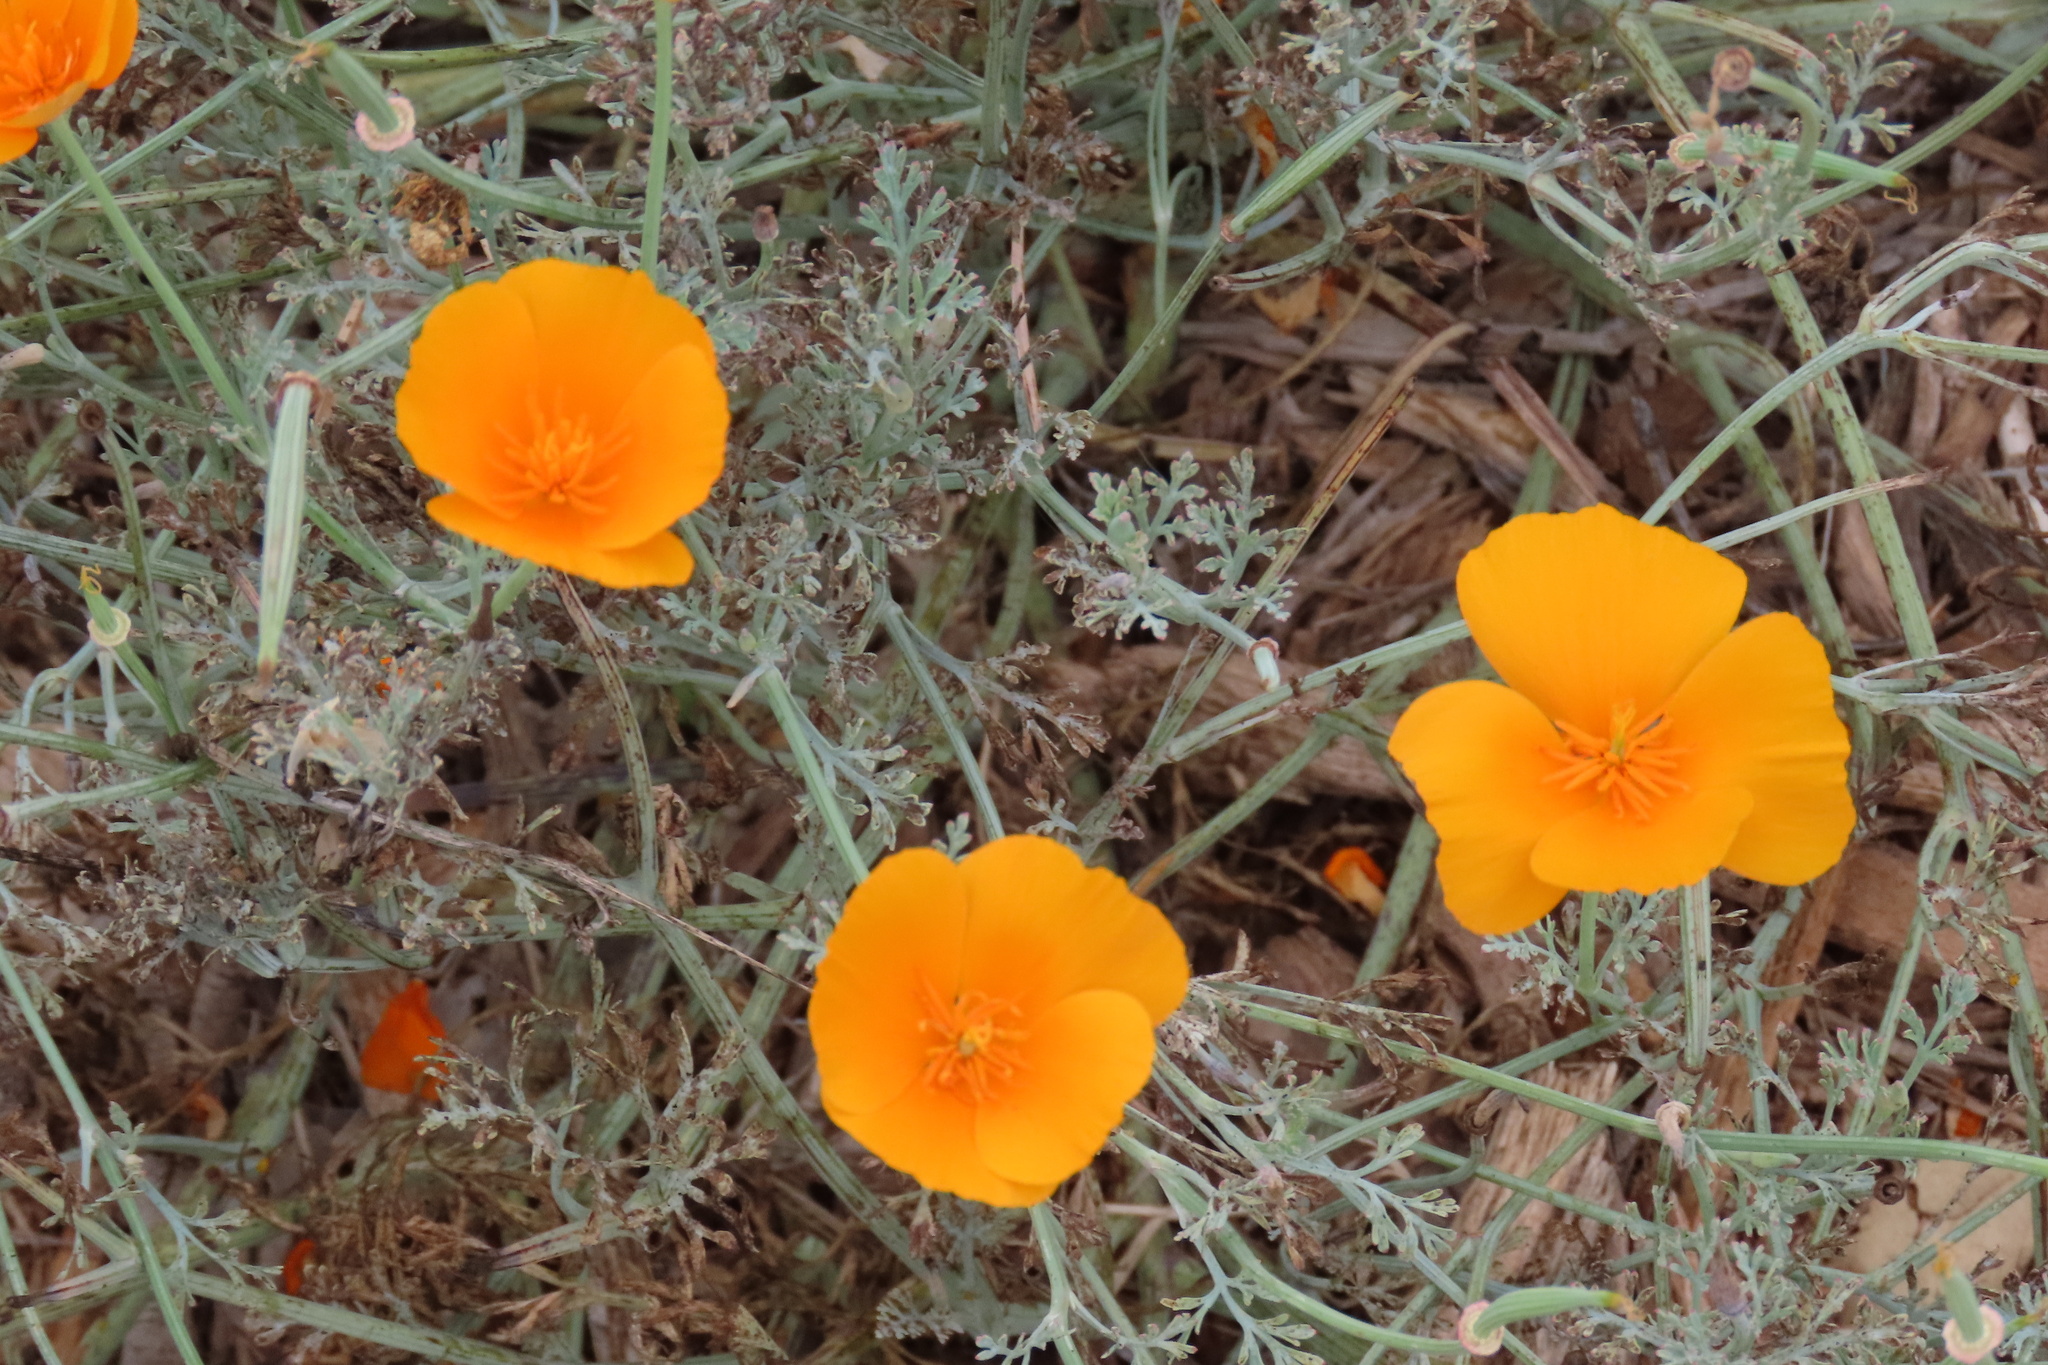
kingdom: Plantae
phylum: Tracheophyta
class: Magnoliopsida
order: Ranunculales
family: Papaveraceae
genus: Eschscholzia
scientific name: Eschscholzia californica
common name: California poppy
